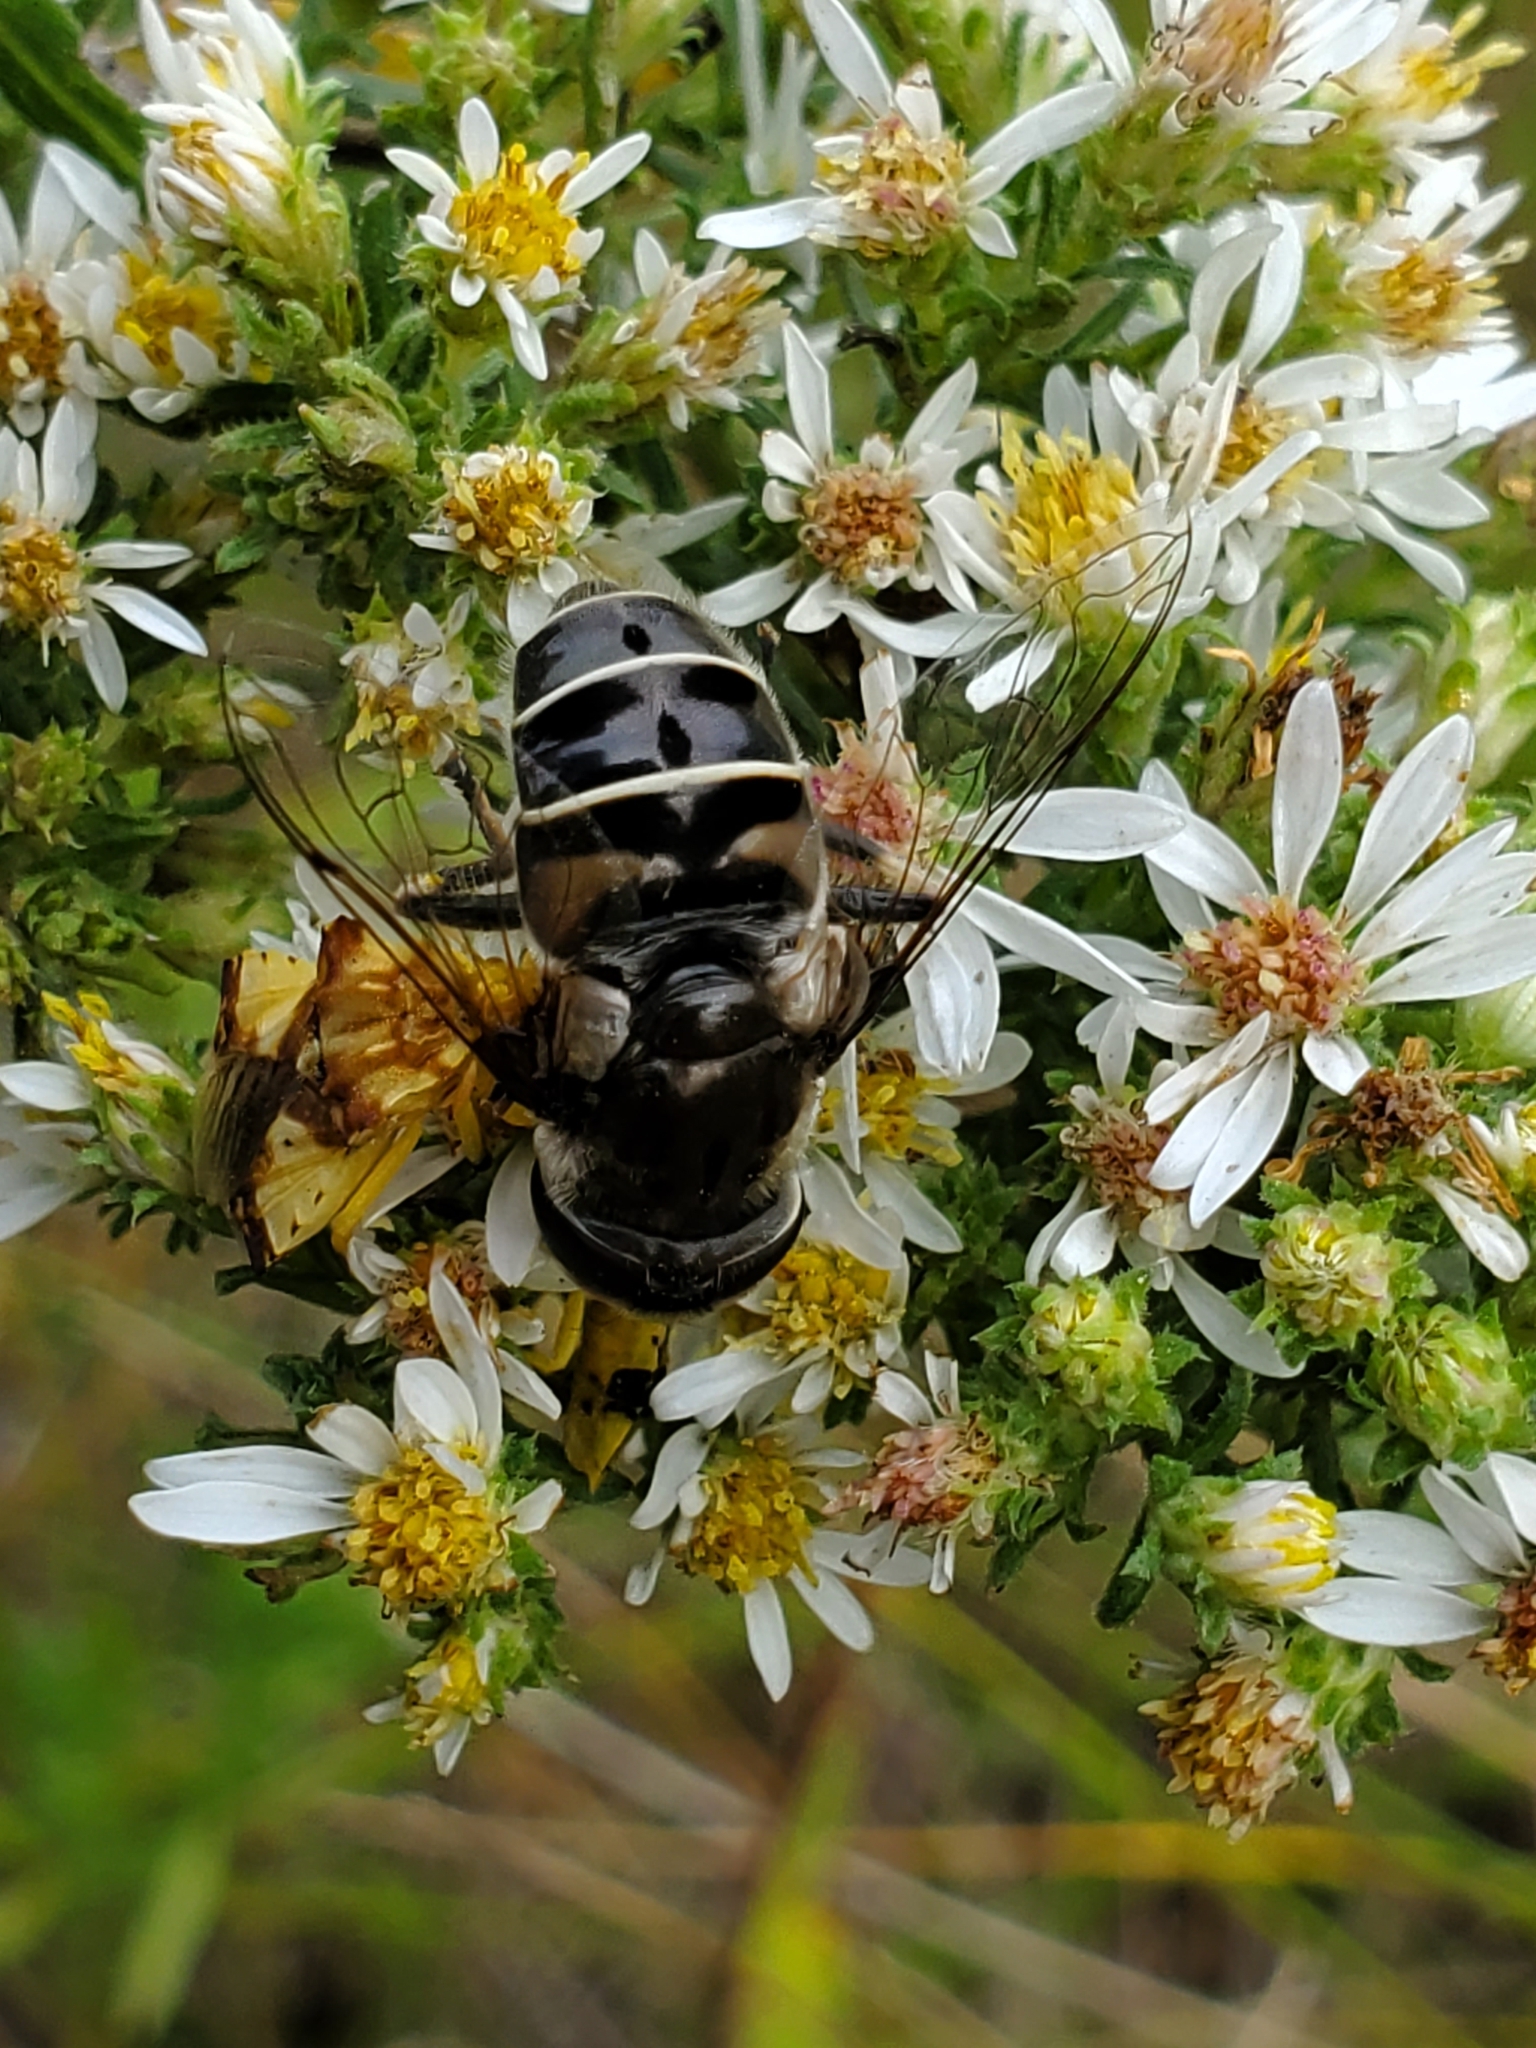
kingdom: Animalia
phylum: Arthropoda
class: Insecta
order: Diptera
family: Syrphidae
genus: Eristalis
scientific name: Eristalis dimidiata
